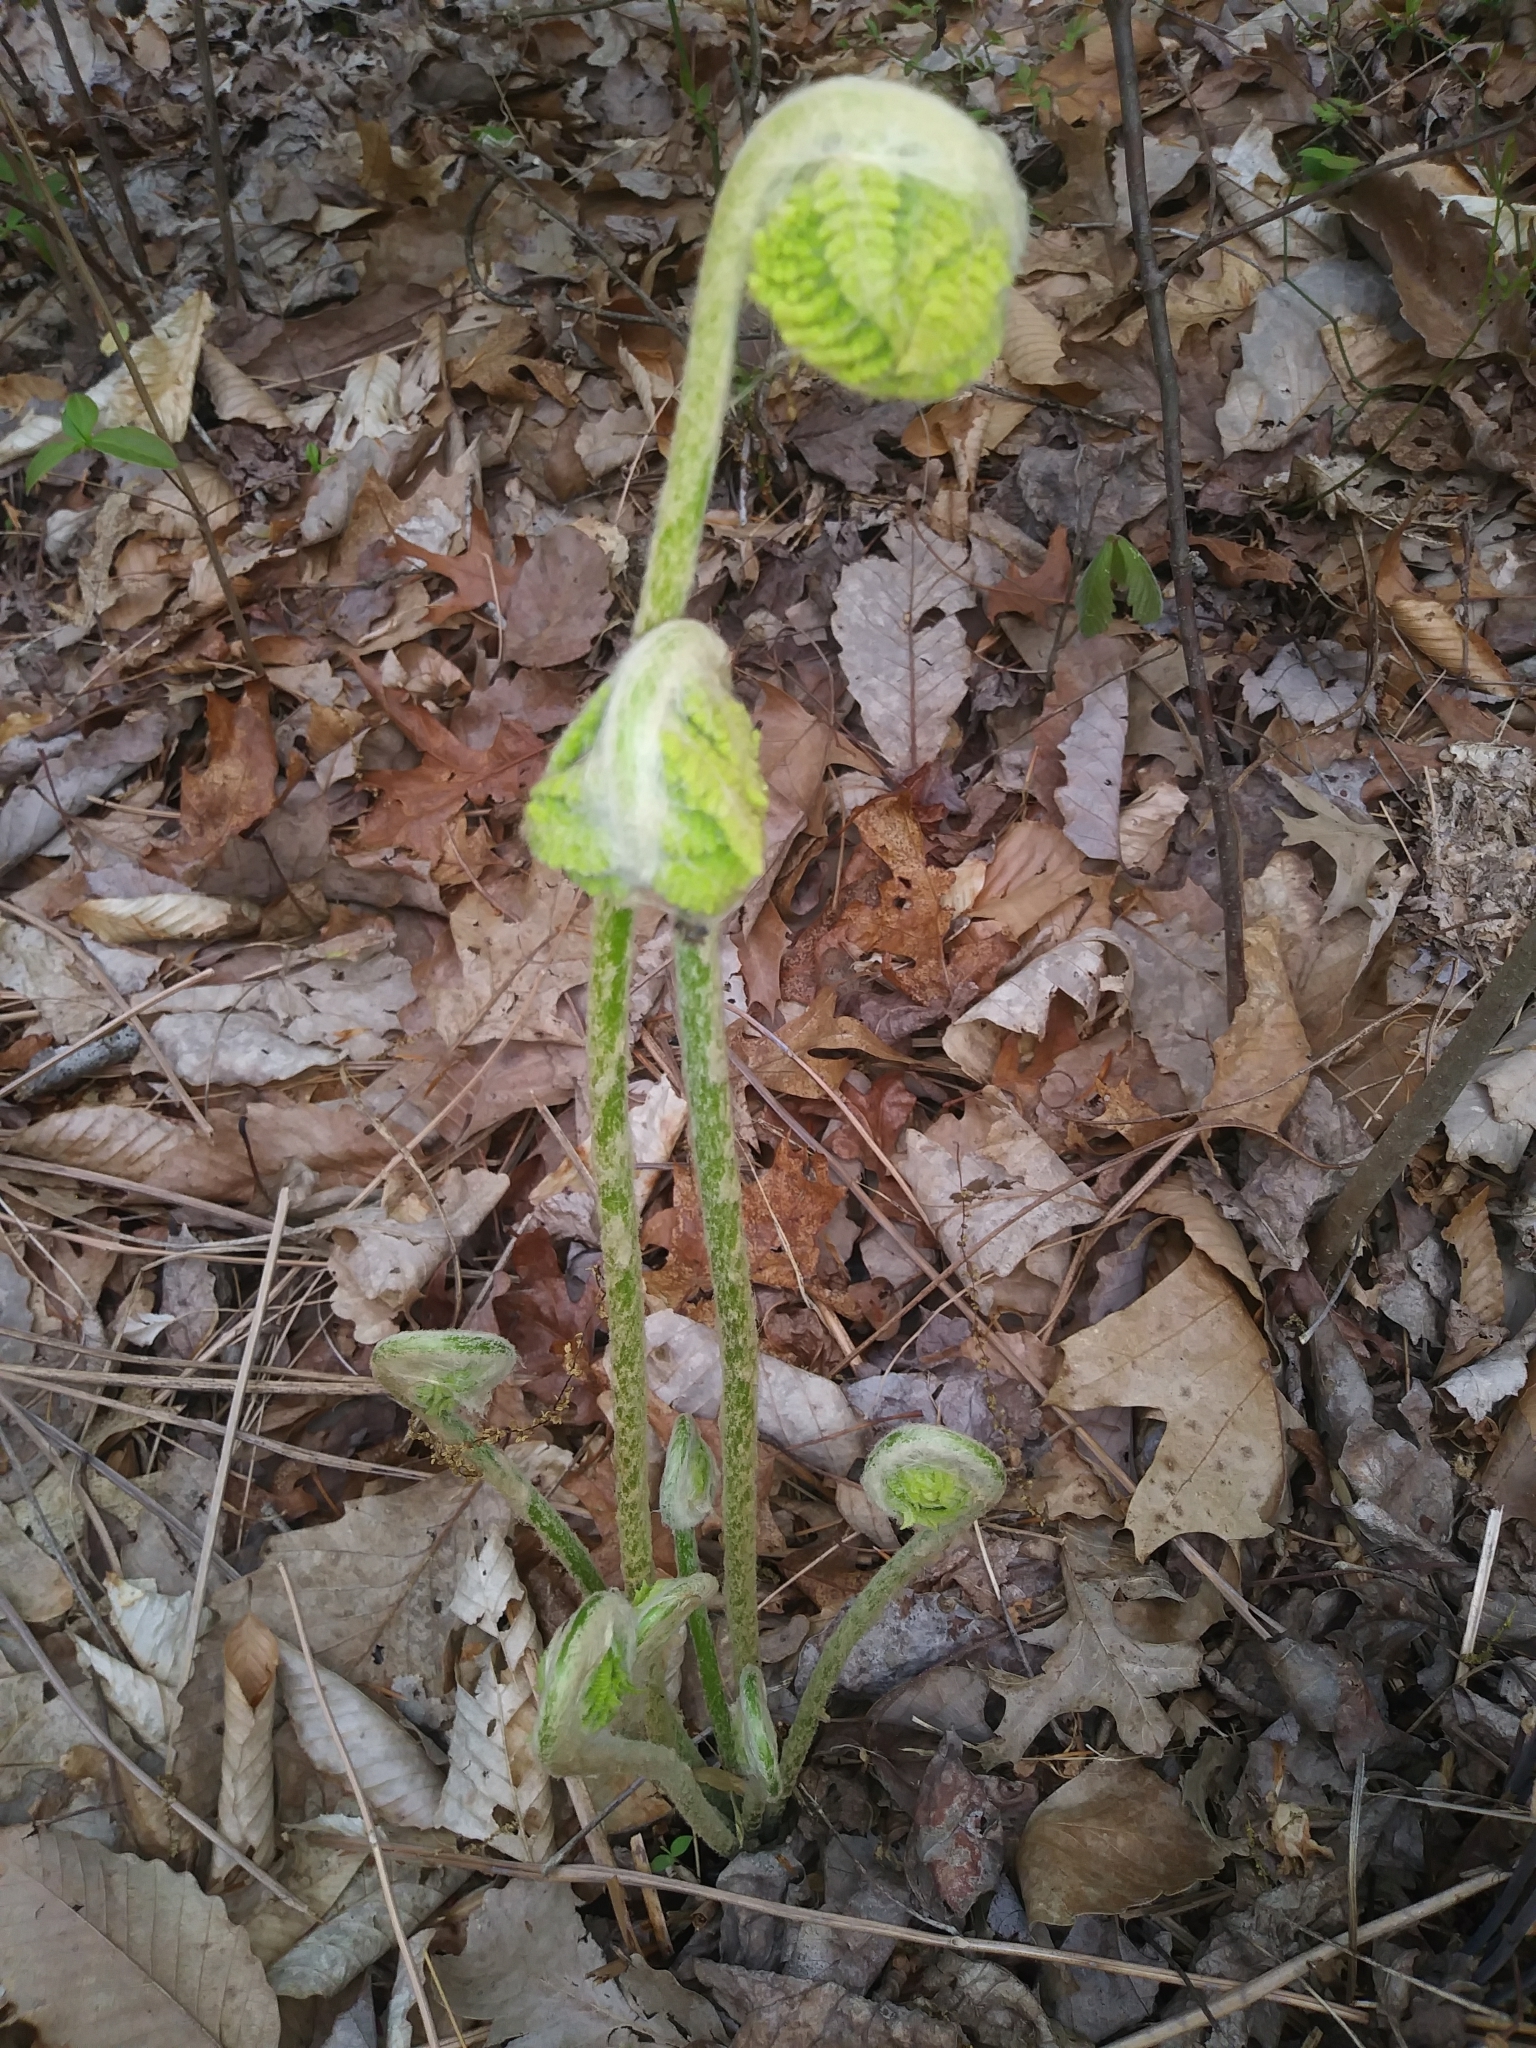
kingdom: Plantae
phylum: Tracheophyta
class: Polypodiopsida
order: Osmundales
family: Osmundaceae
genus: Osmundastrum
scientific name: Osmundastrum cinnamomeum
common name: Cinnamon fern
